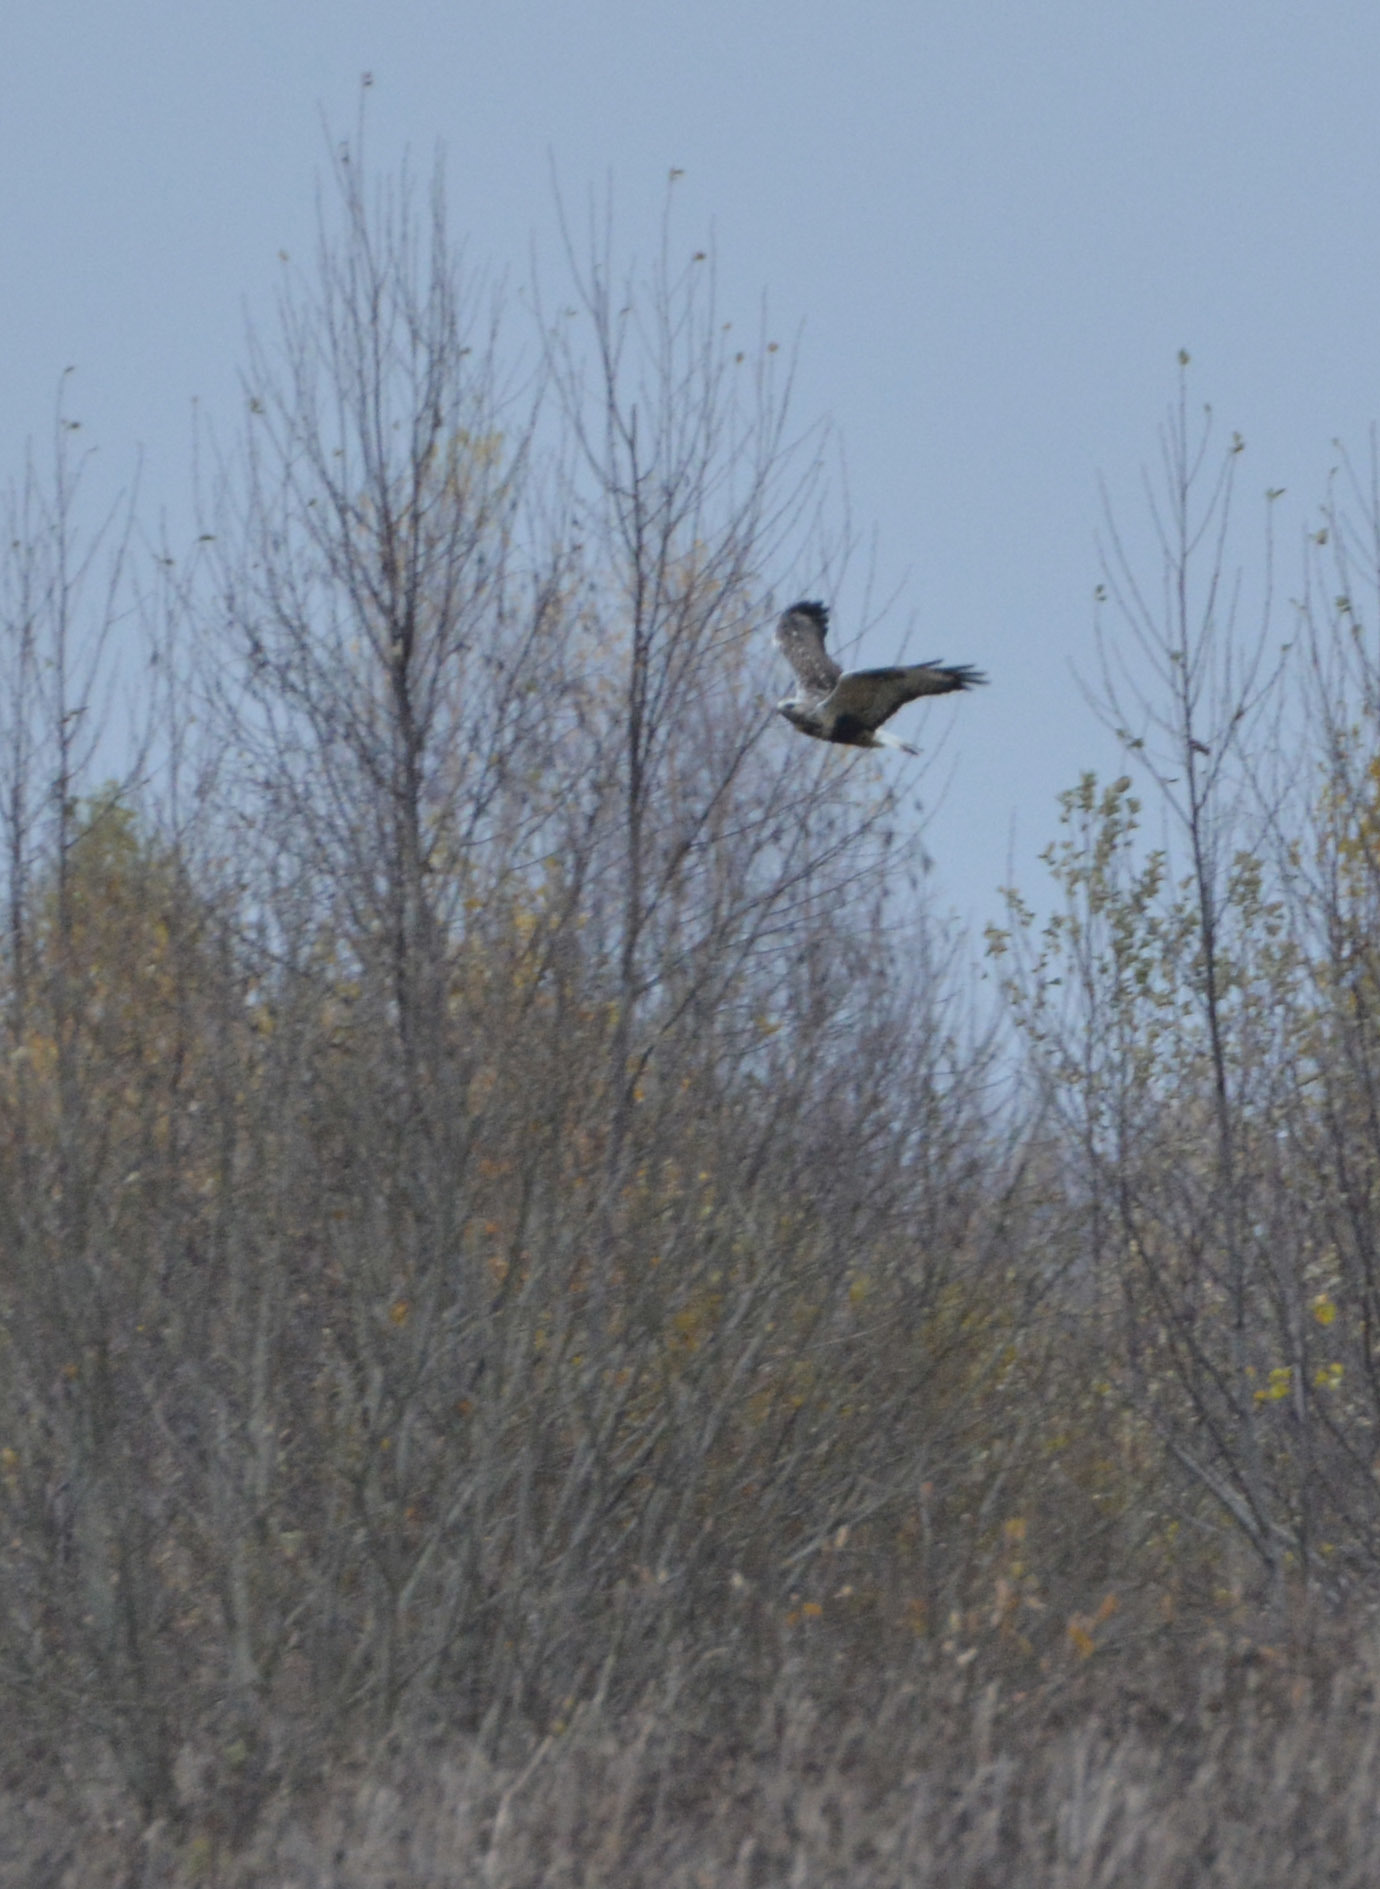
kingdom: Animalia
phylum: Chordata
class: Aves
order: Accipitriformes
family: Accipitridae
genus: Buteo
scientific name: Buteo lagopus
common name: Rough-legged buzzard
